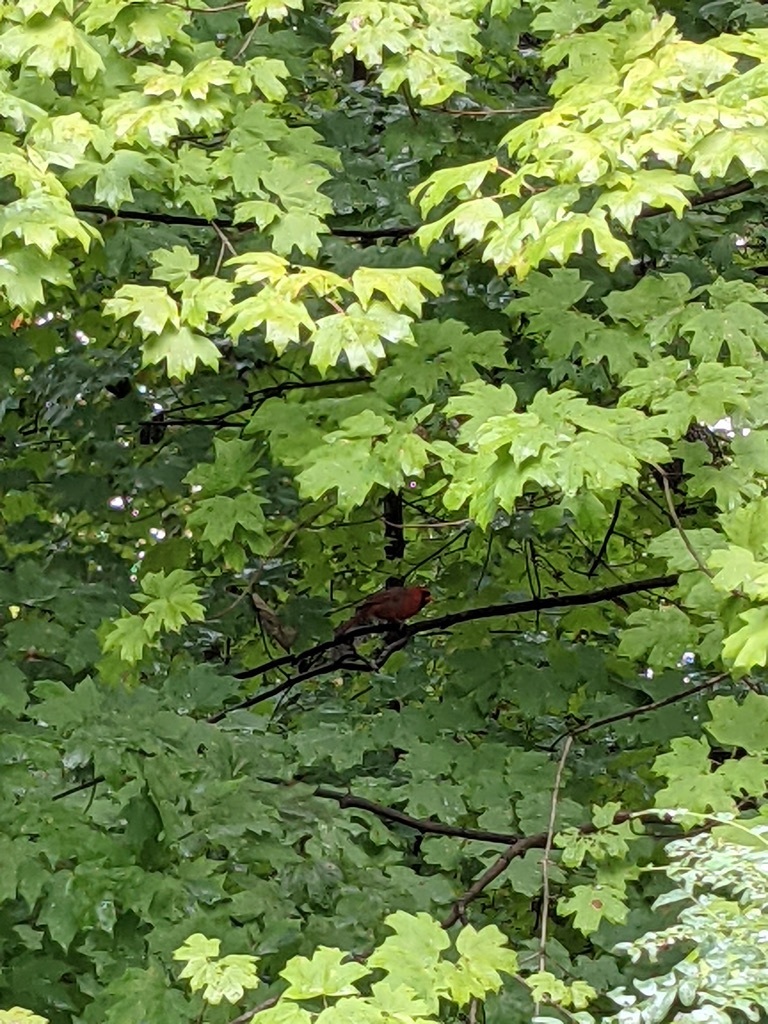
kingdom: Animalia
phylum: Chordata
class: Aves
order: Passeriformes
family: Cardinalidae
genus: Cardinalis
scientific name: Cardinalis cardinalis
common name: Northern cardinal
